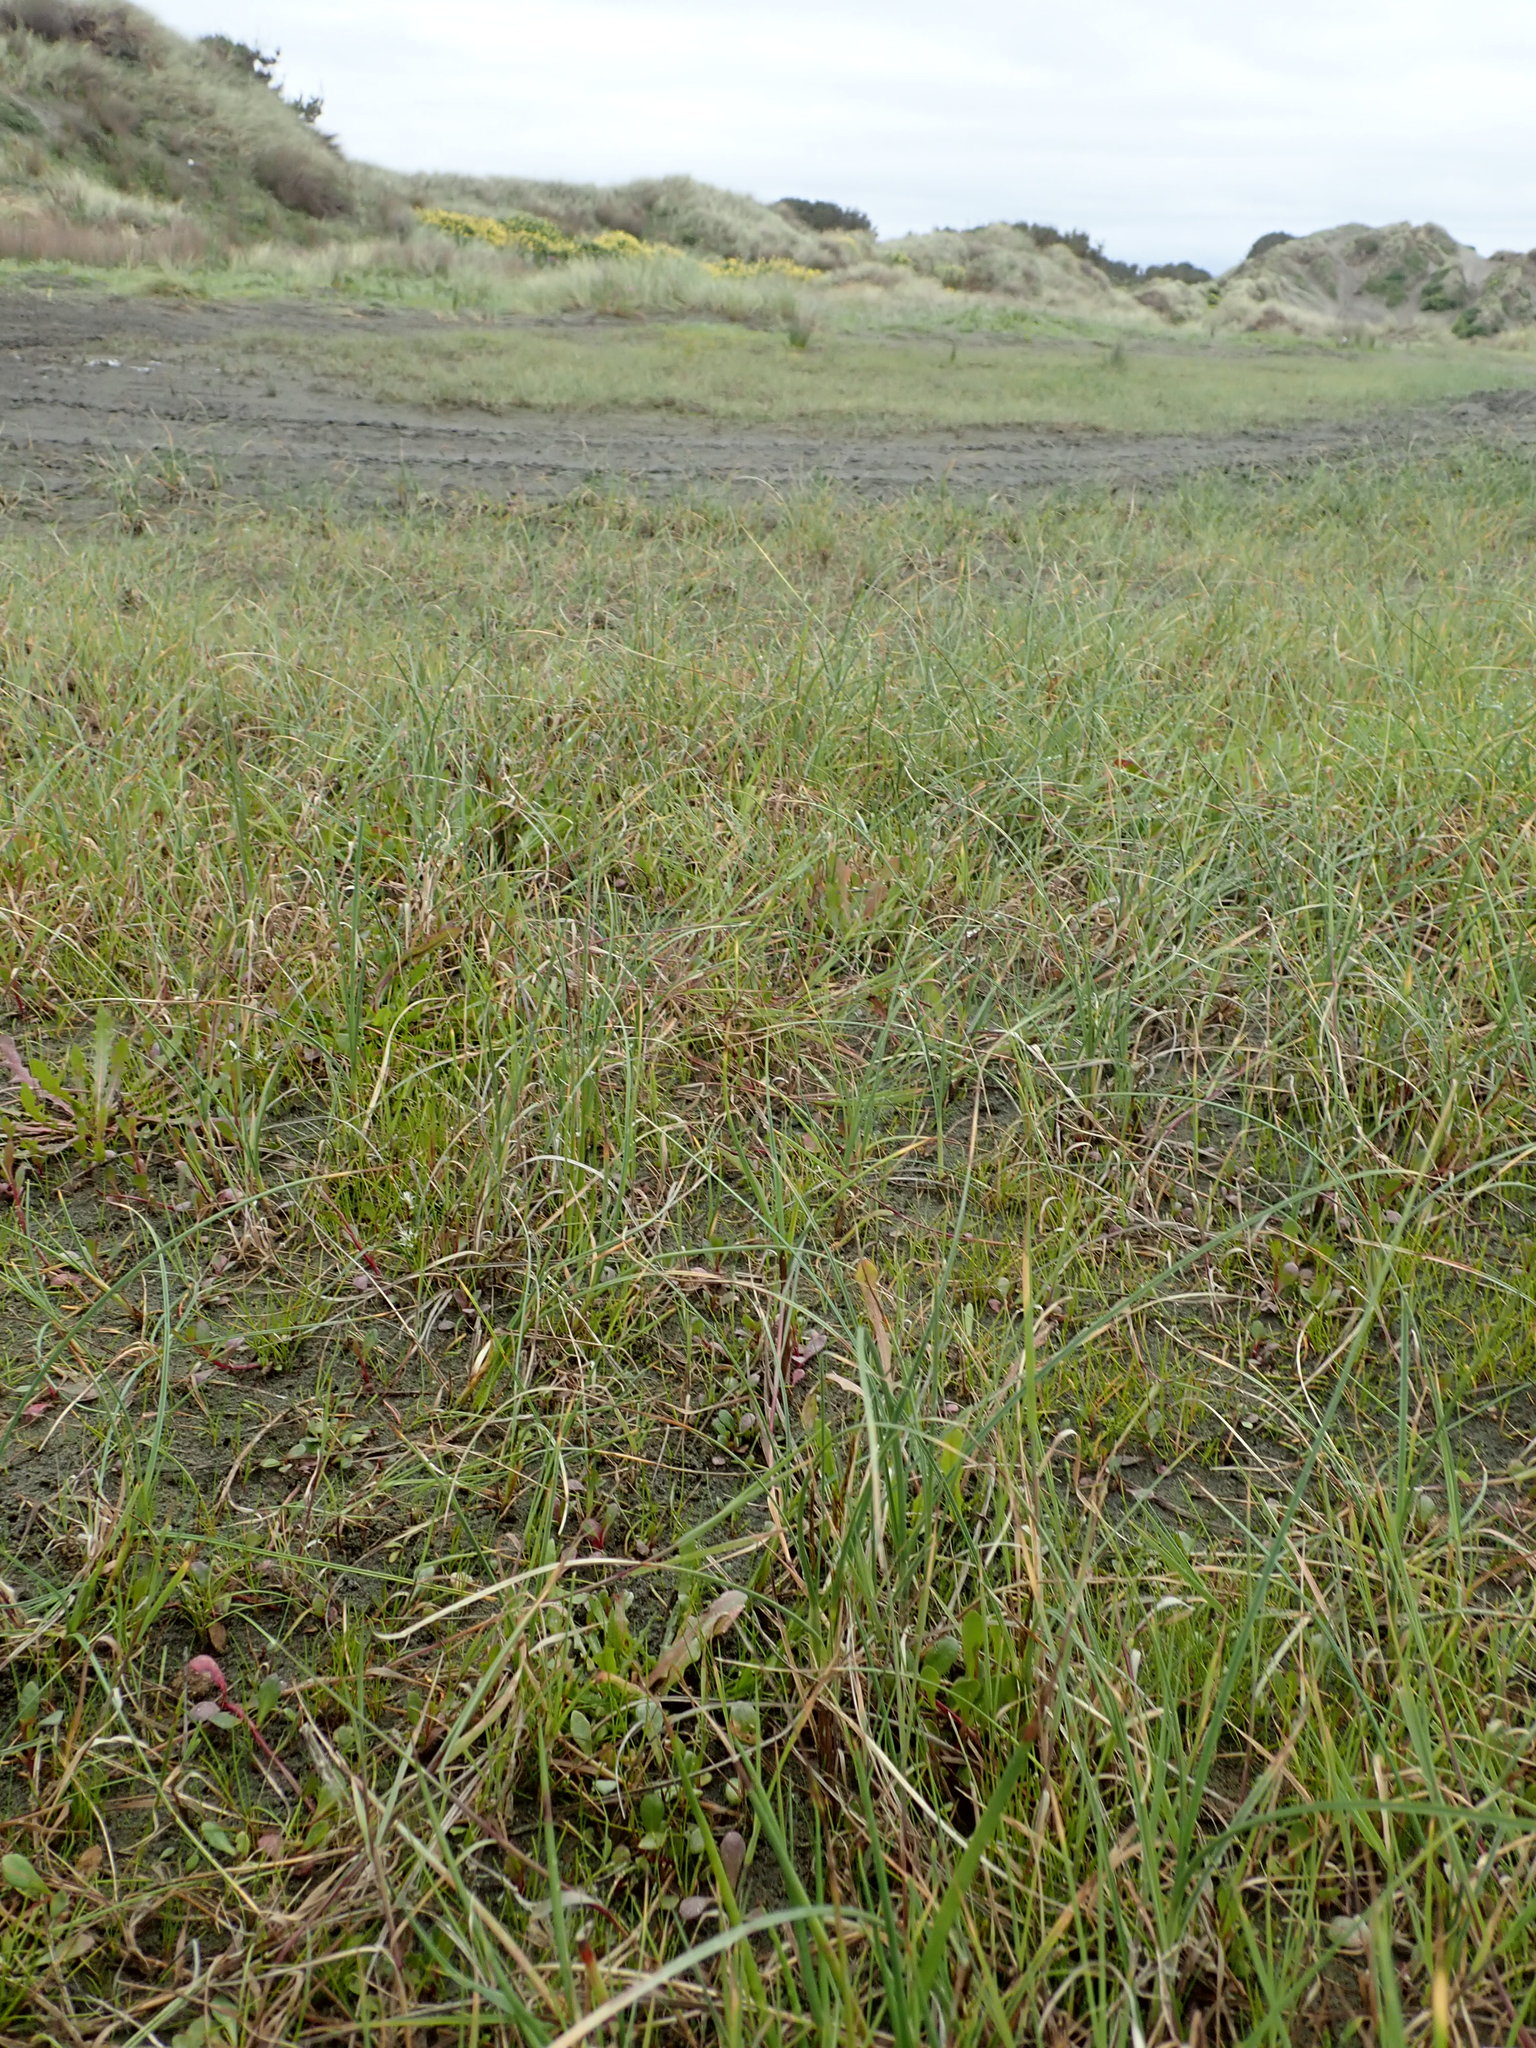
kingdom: Plantae
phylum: Tracheophyta
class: Liliopsida
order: Poales
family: Cyperaceae
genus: Carex
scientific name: Carex pumila
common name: Dwarf sedge
